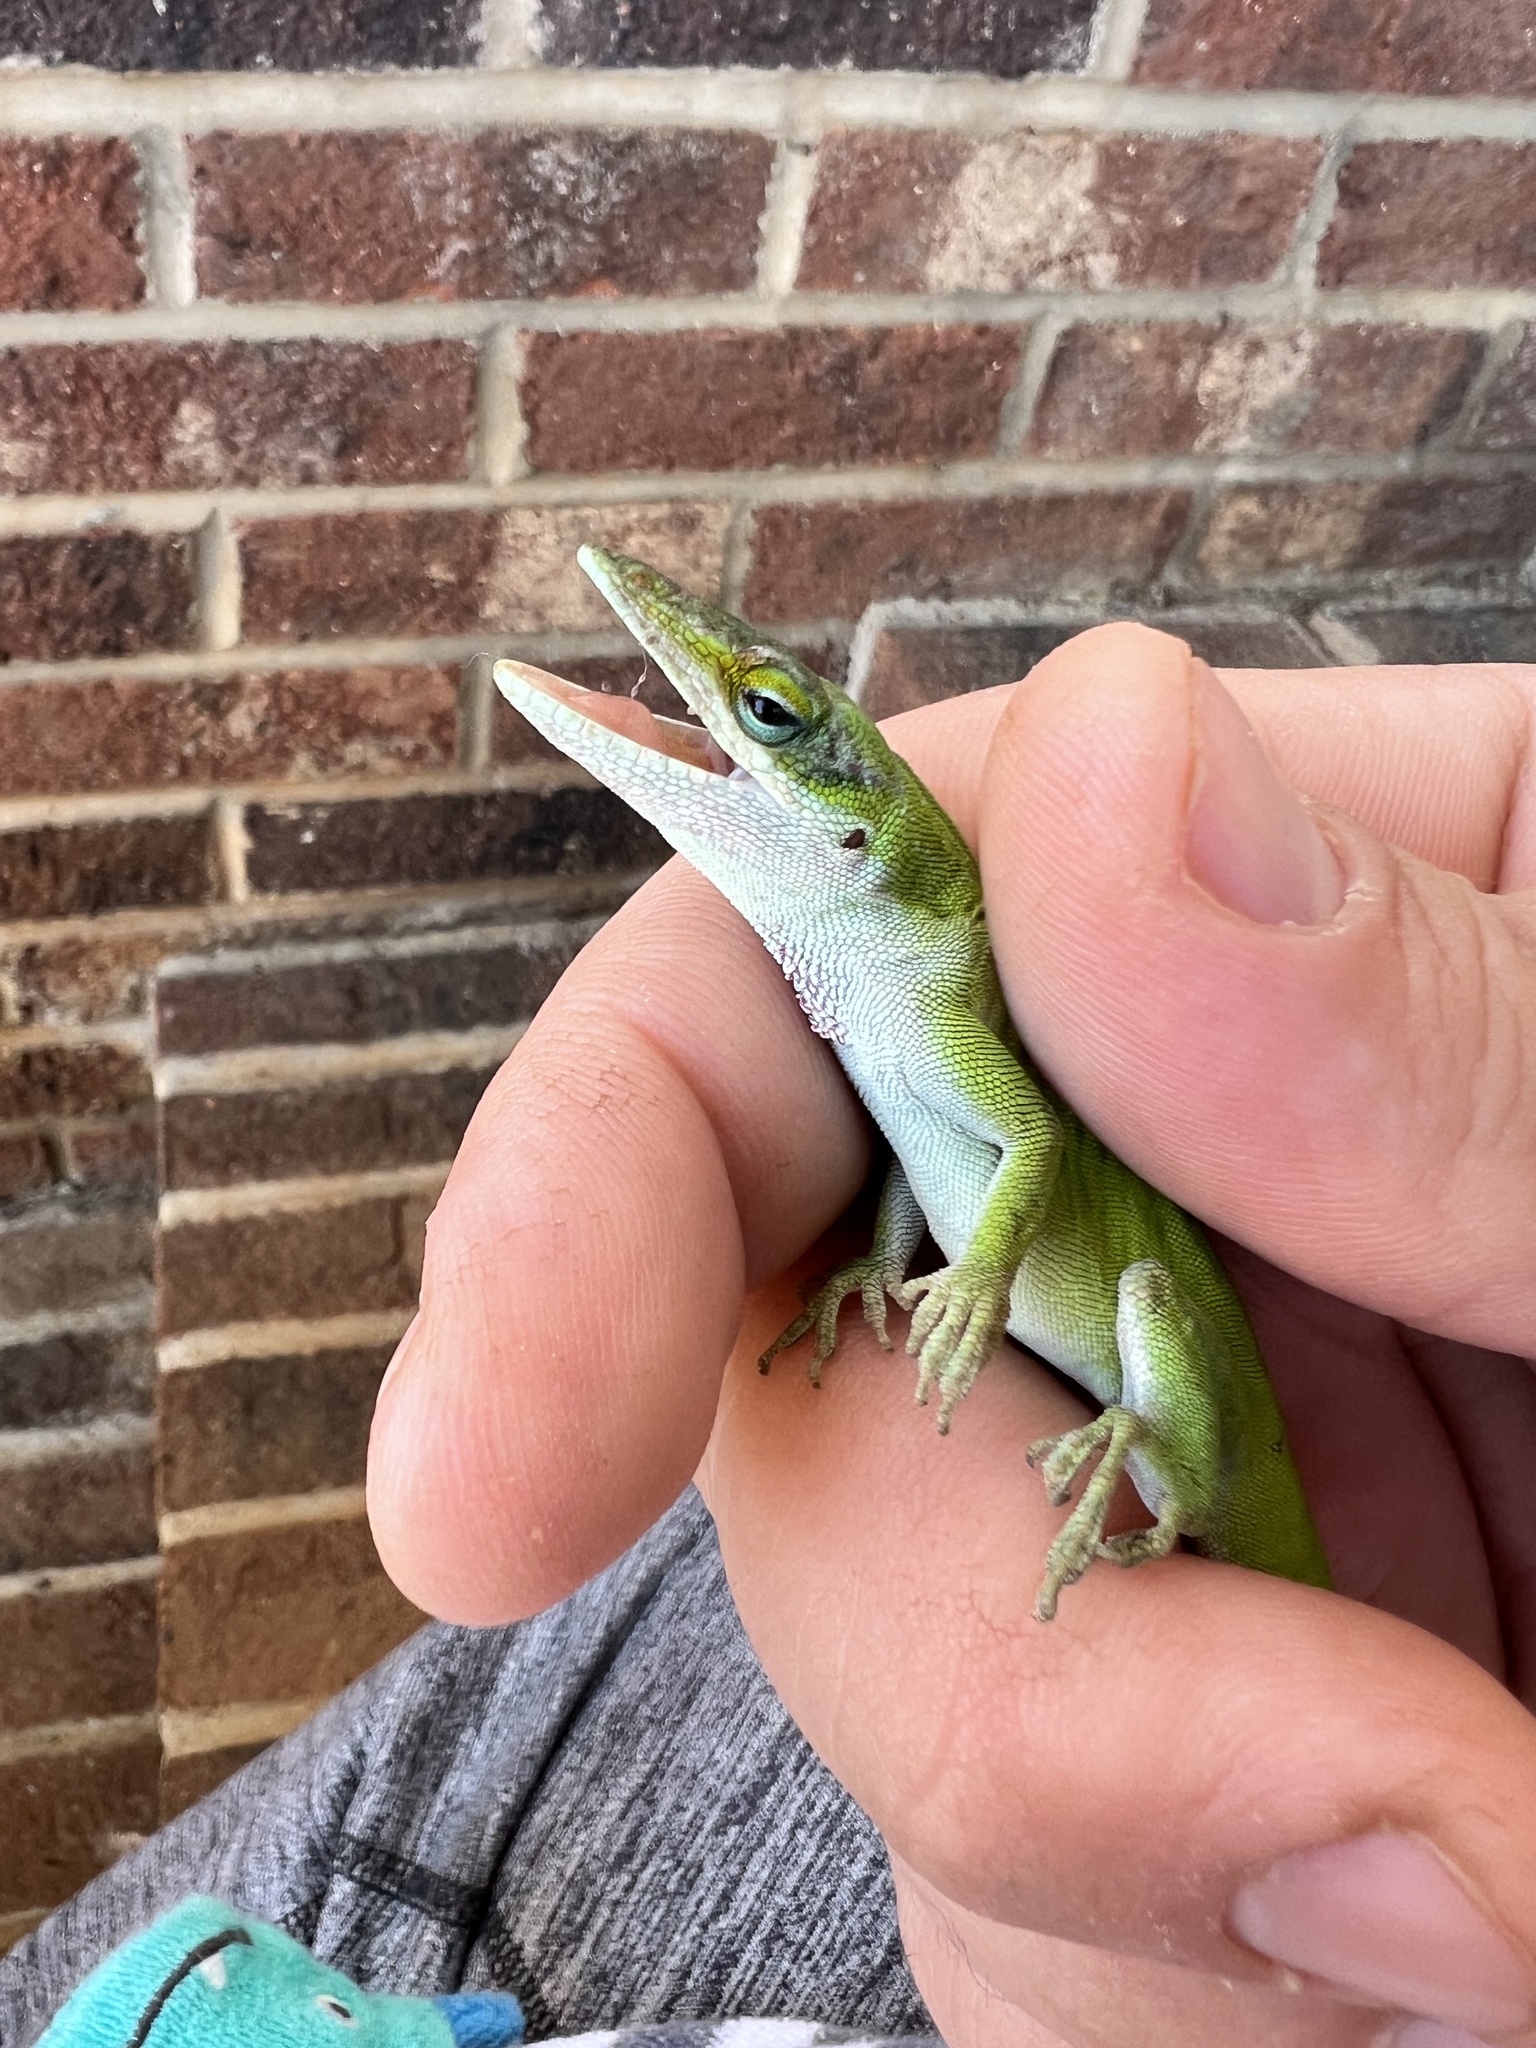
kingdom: Animalia
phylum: Chordata
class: Squamata
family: Dactyloidae
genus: Anolis
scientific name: Anolis carolinensis
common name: Green anole
